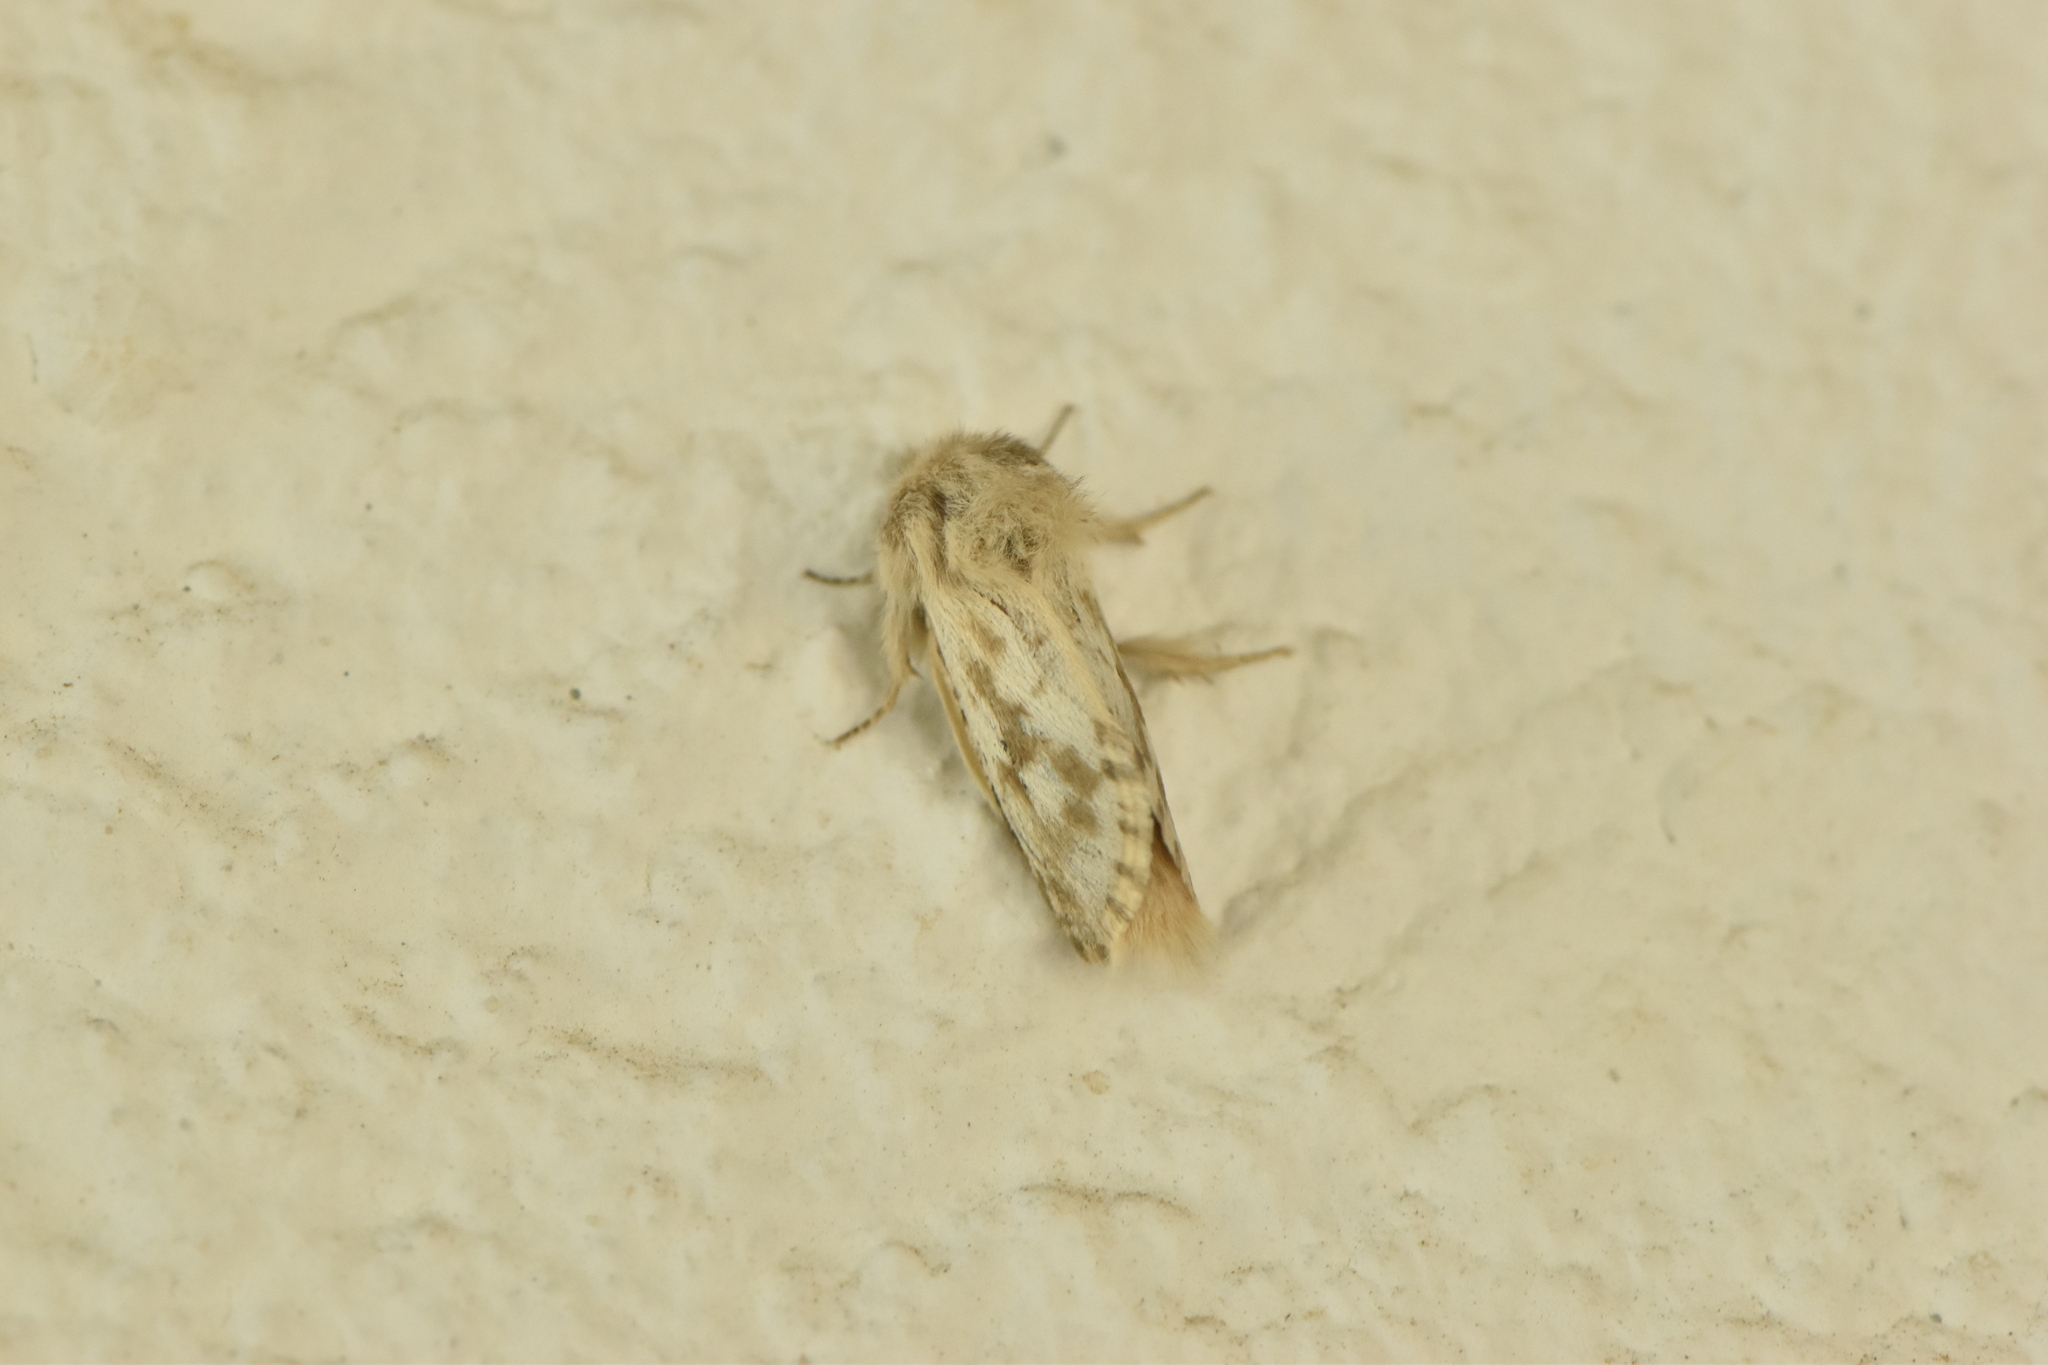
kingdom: Animalia
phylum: Arthropoda
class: Insecta
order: Lepidoptera
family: Cossidae
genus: Dyspessa
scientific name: Dyspessa ulula
